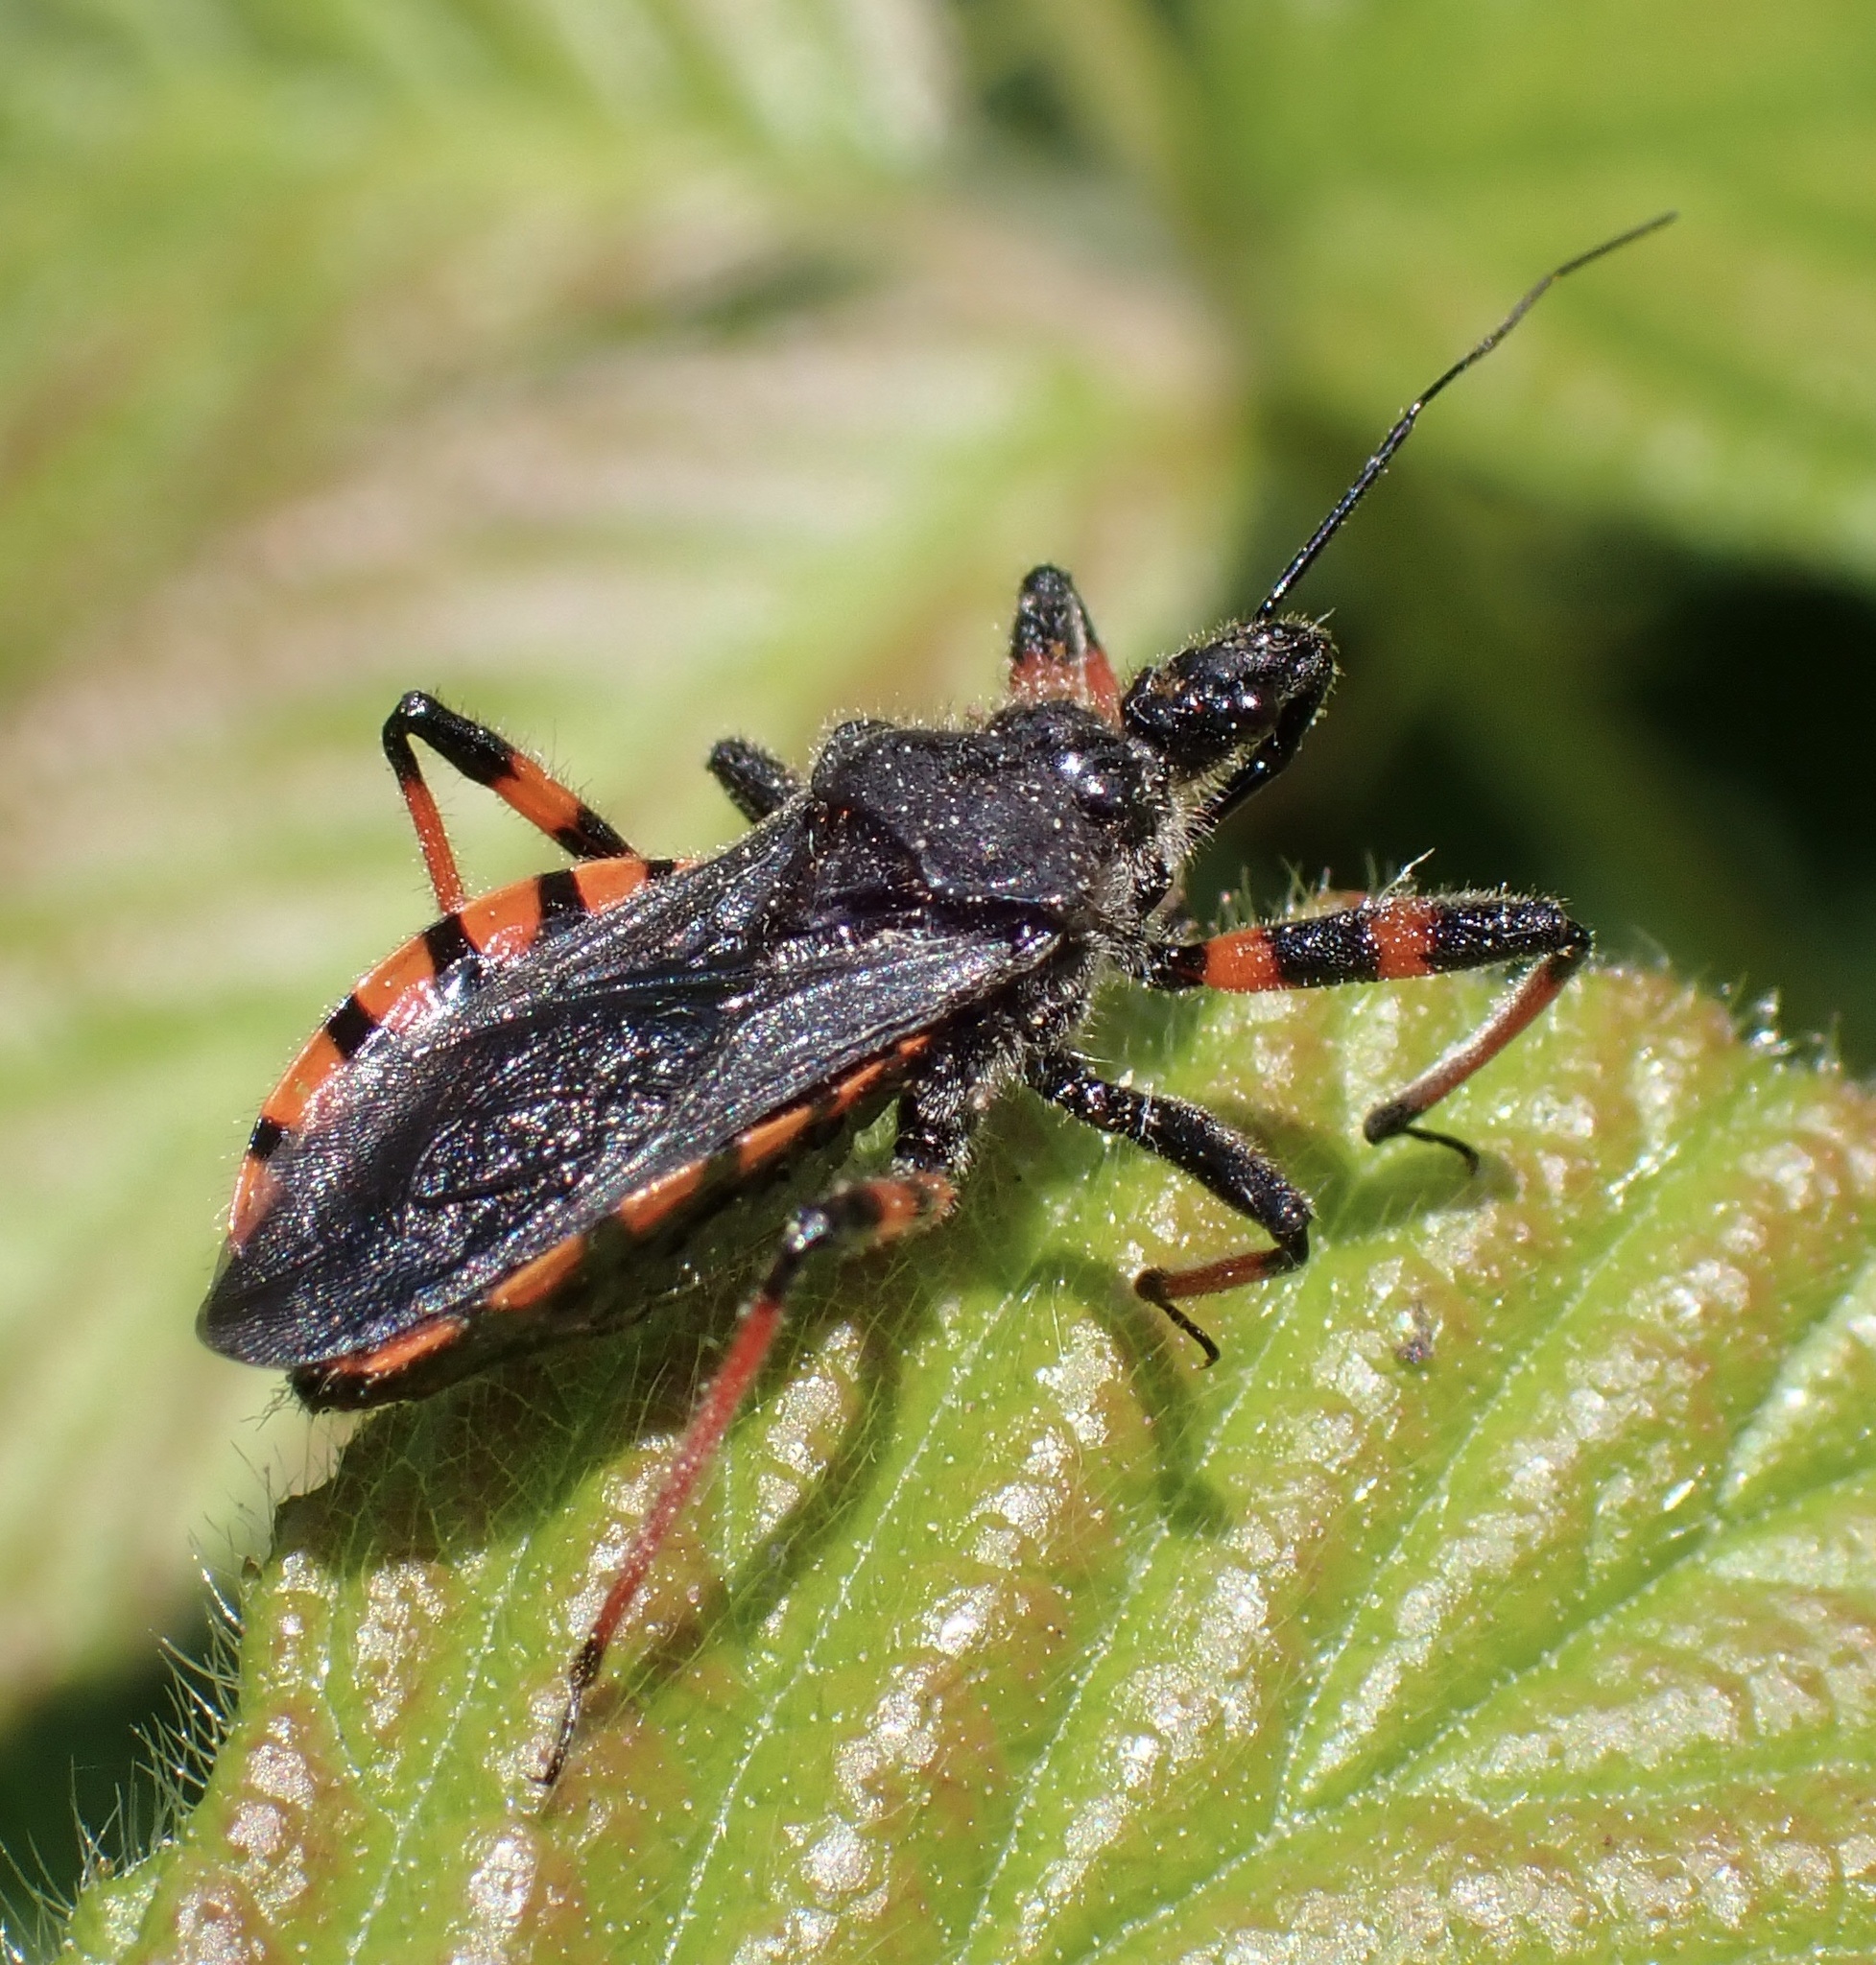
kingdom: Animalia
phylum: Arthropoda
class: Insecta
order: Hemiptera
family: Reduviidae
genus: Rhynocoris
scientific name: Rhynocoris annulatus
